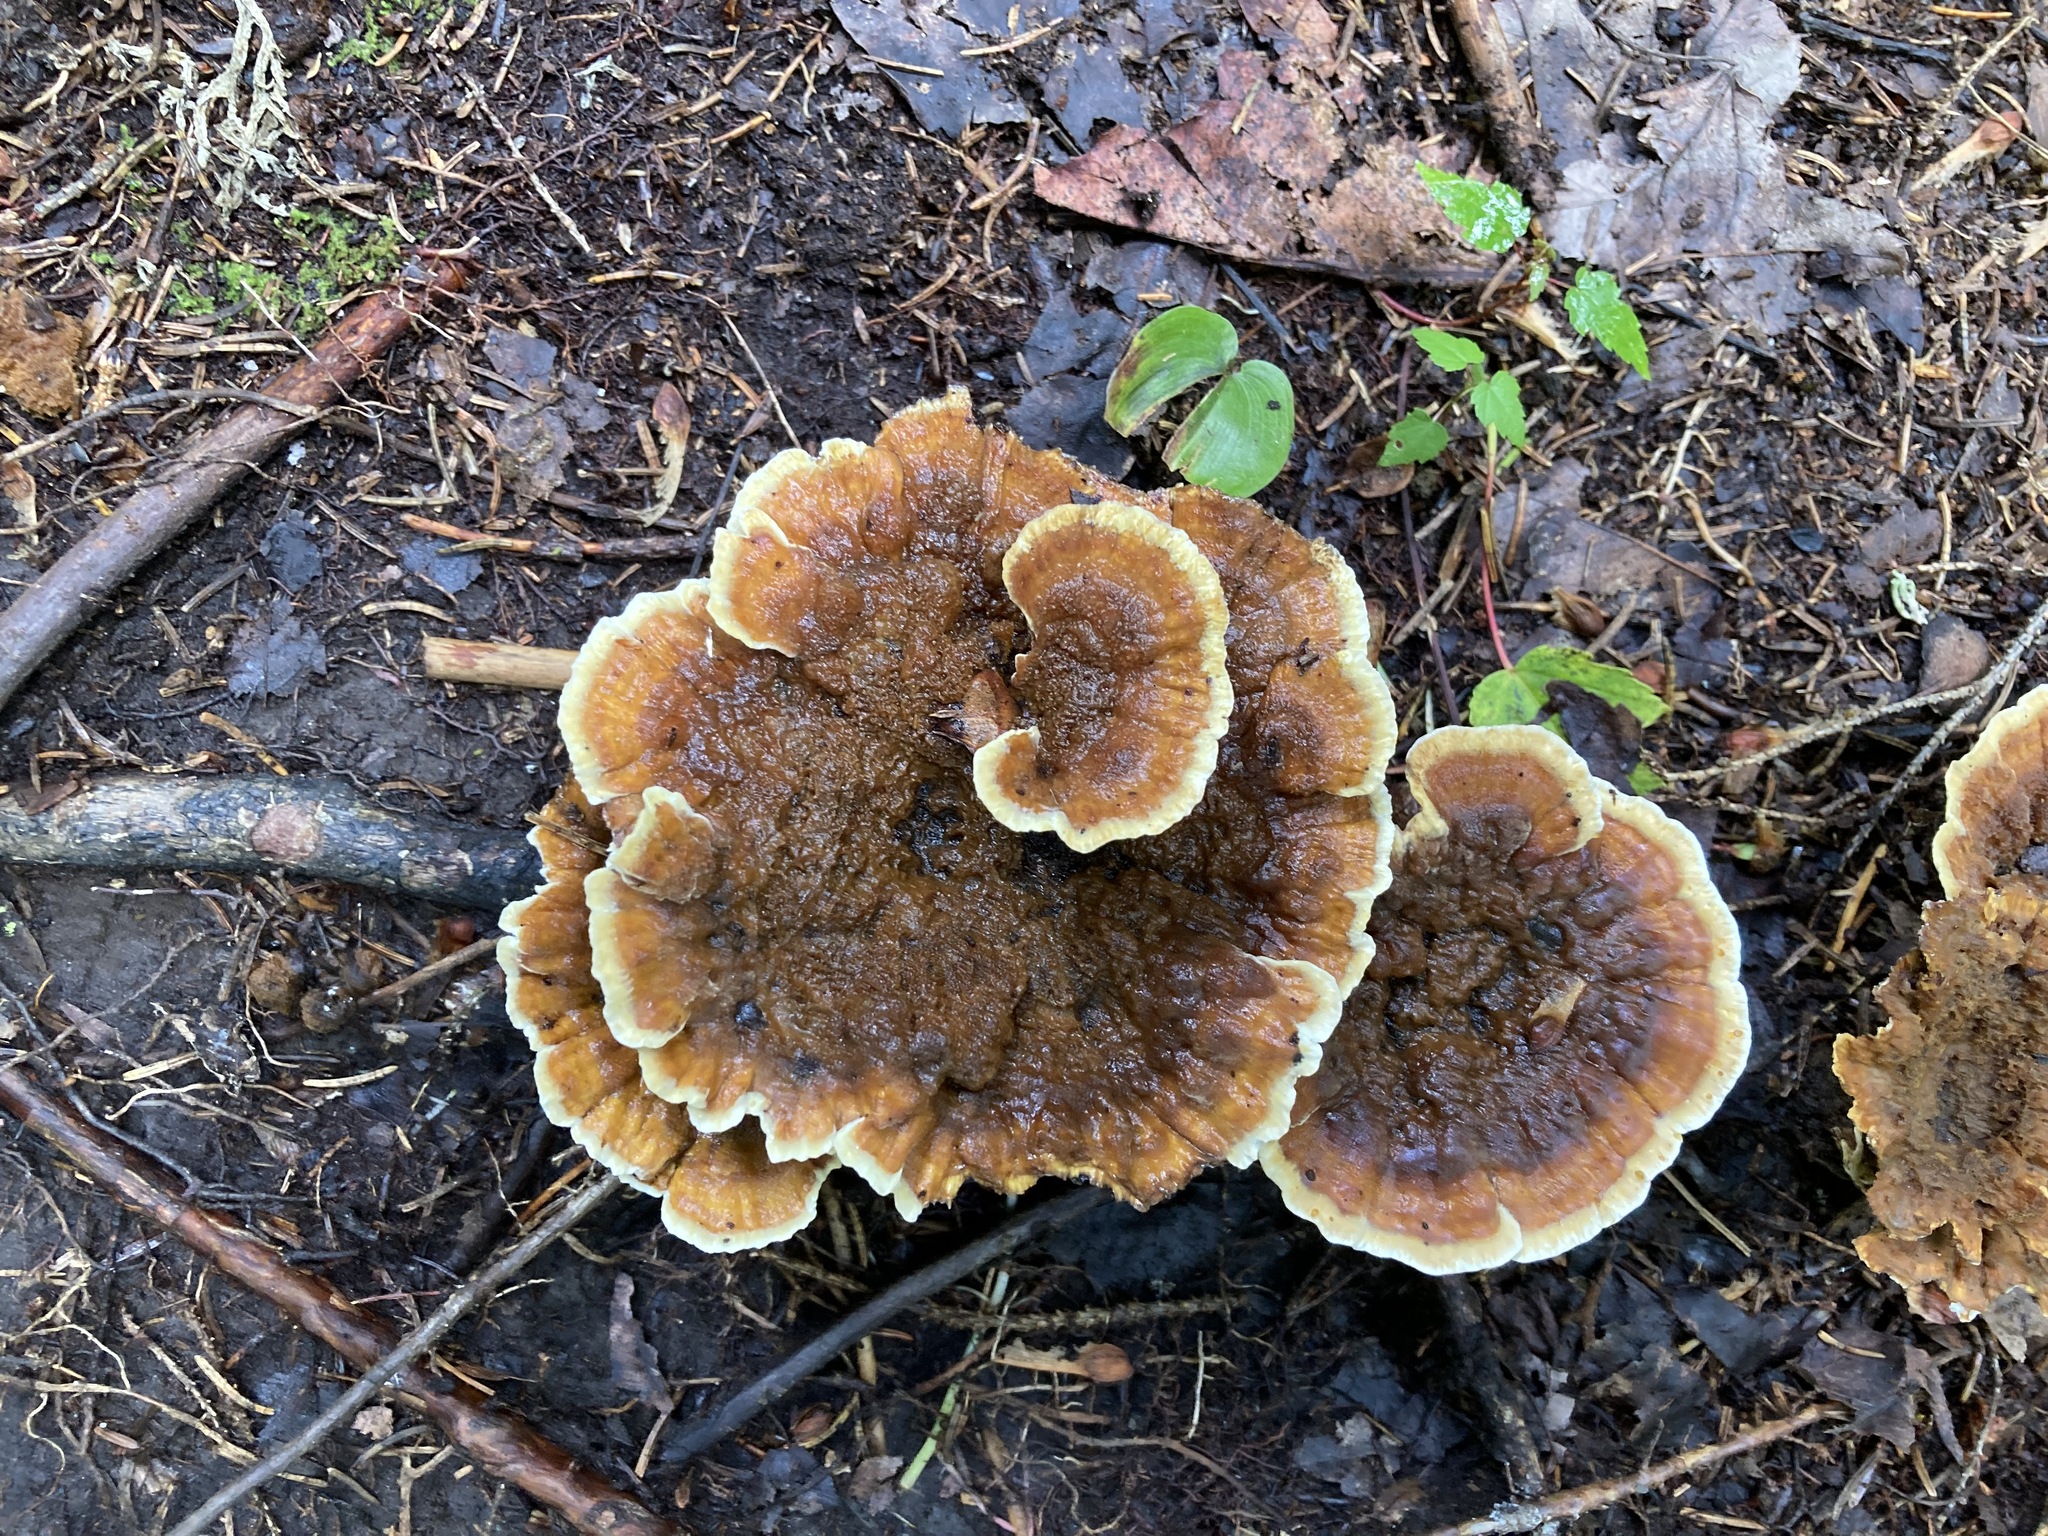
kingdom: Fungi
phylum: Basidiomycota
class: Agaricomycetes
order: Polyporales
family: Laetiporaceae
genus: Phaeolus
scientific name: Phaeolus schweinitzii
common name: Dyer's mazegill
